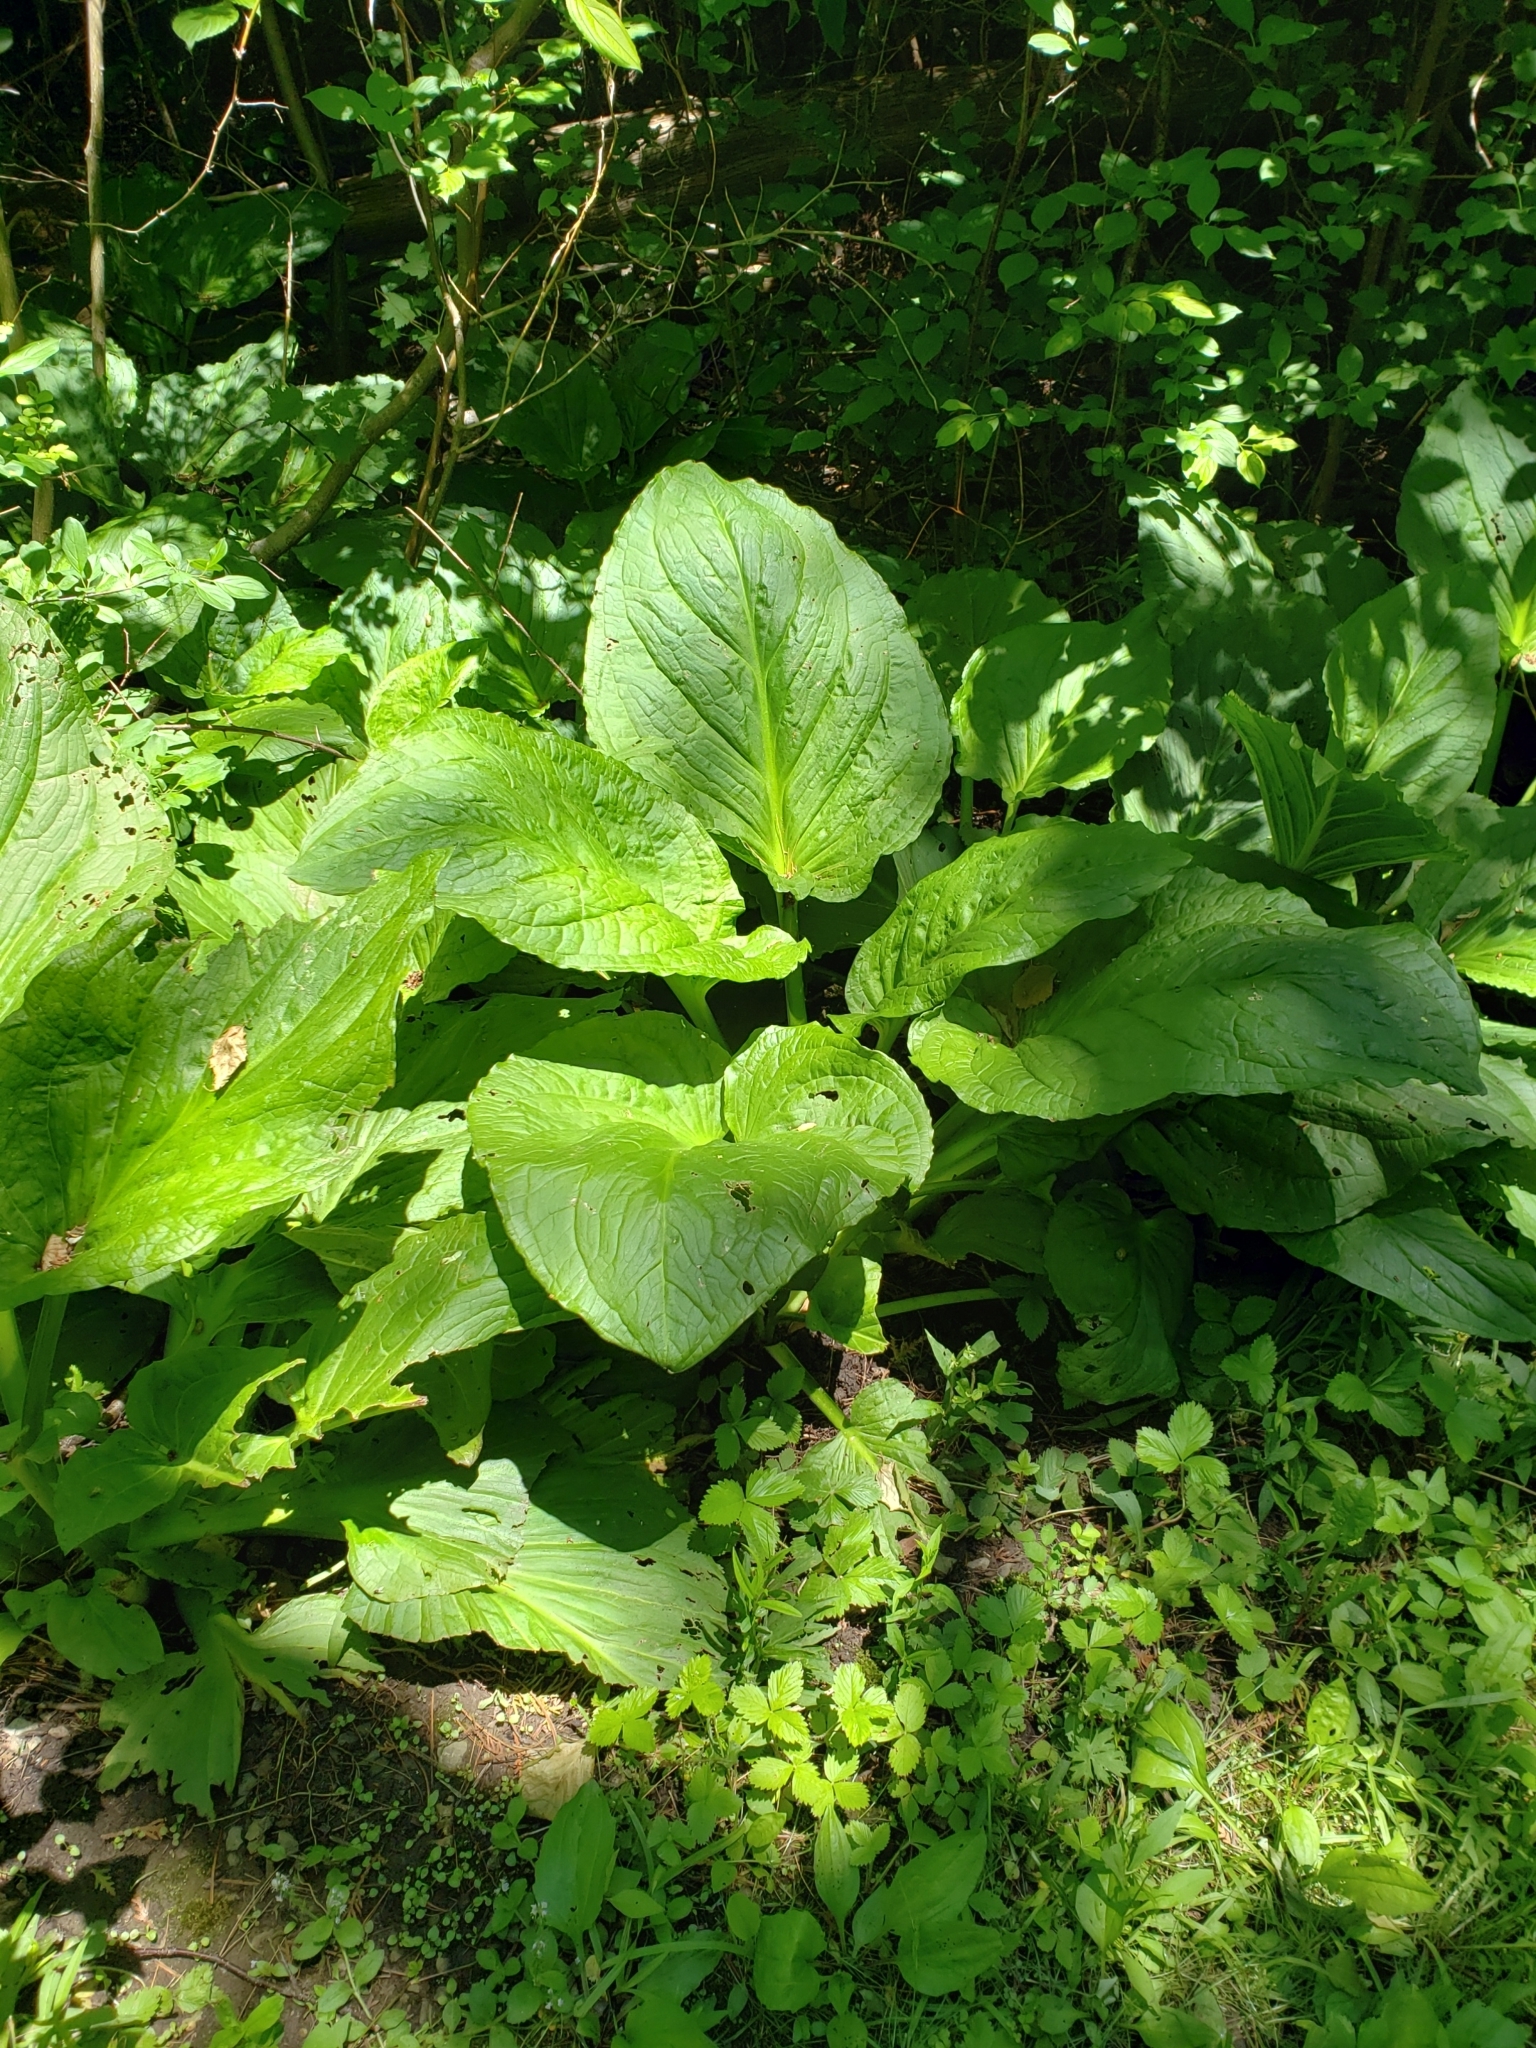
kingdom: Plantae
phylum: Tracheophyta
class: Liliopsida
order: Alismatales
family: Araceae
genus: Symplocarpus
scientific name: Symplocarpus foetidus
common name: Eastern skunk cabbage
